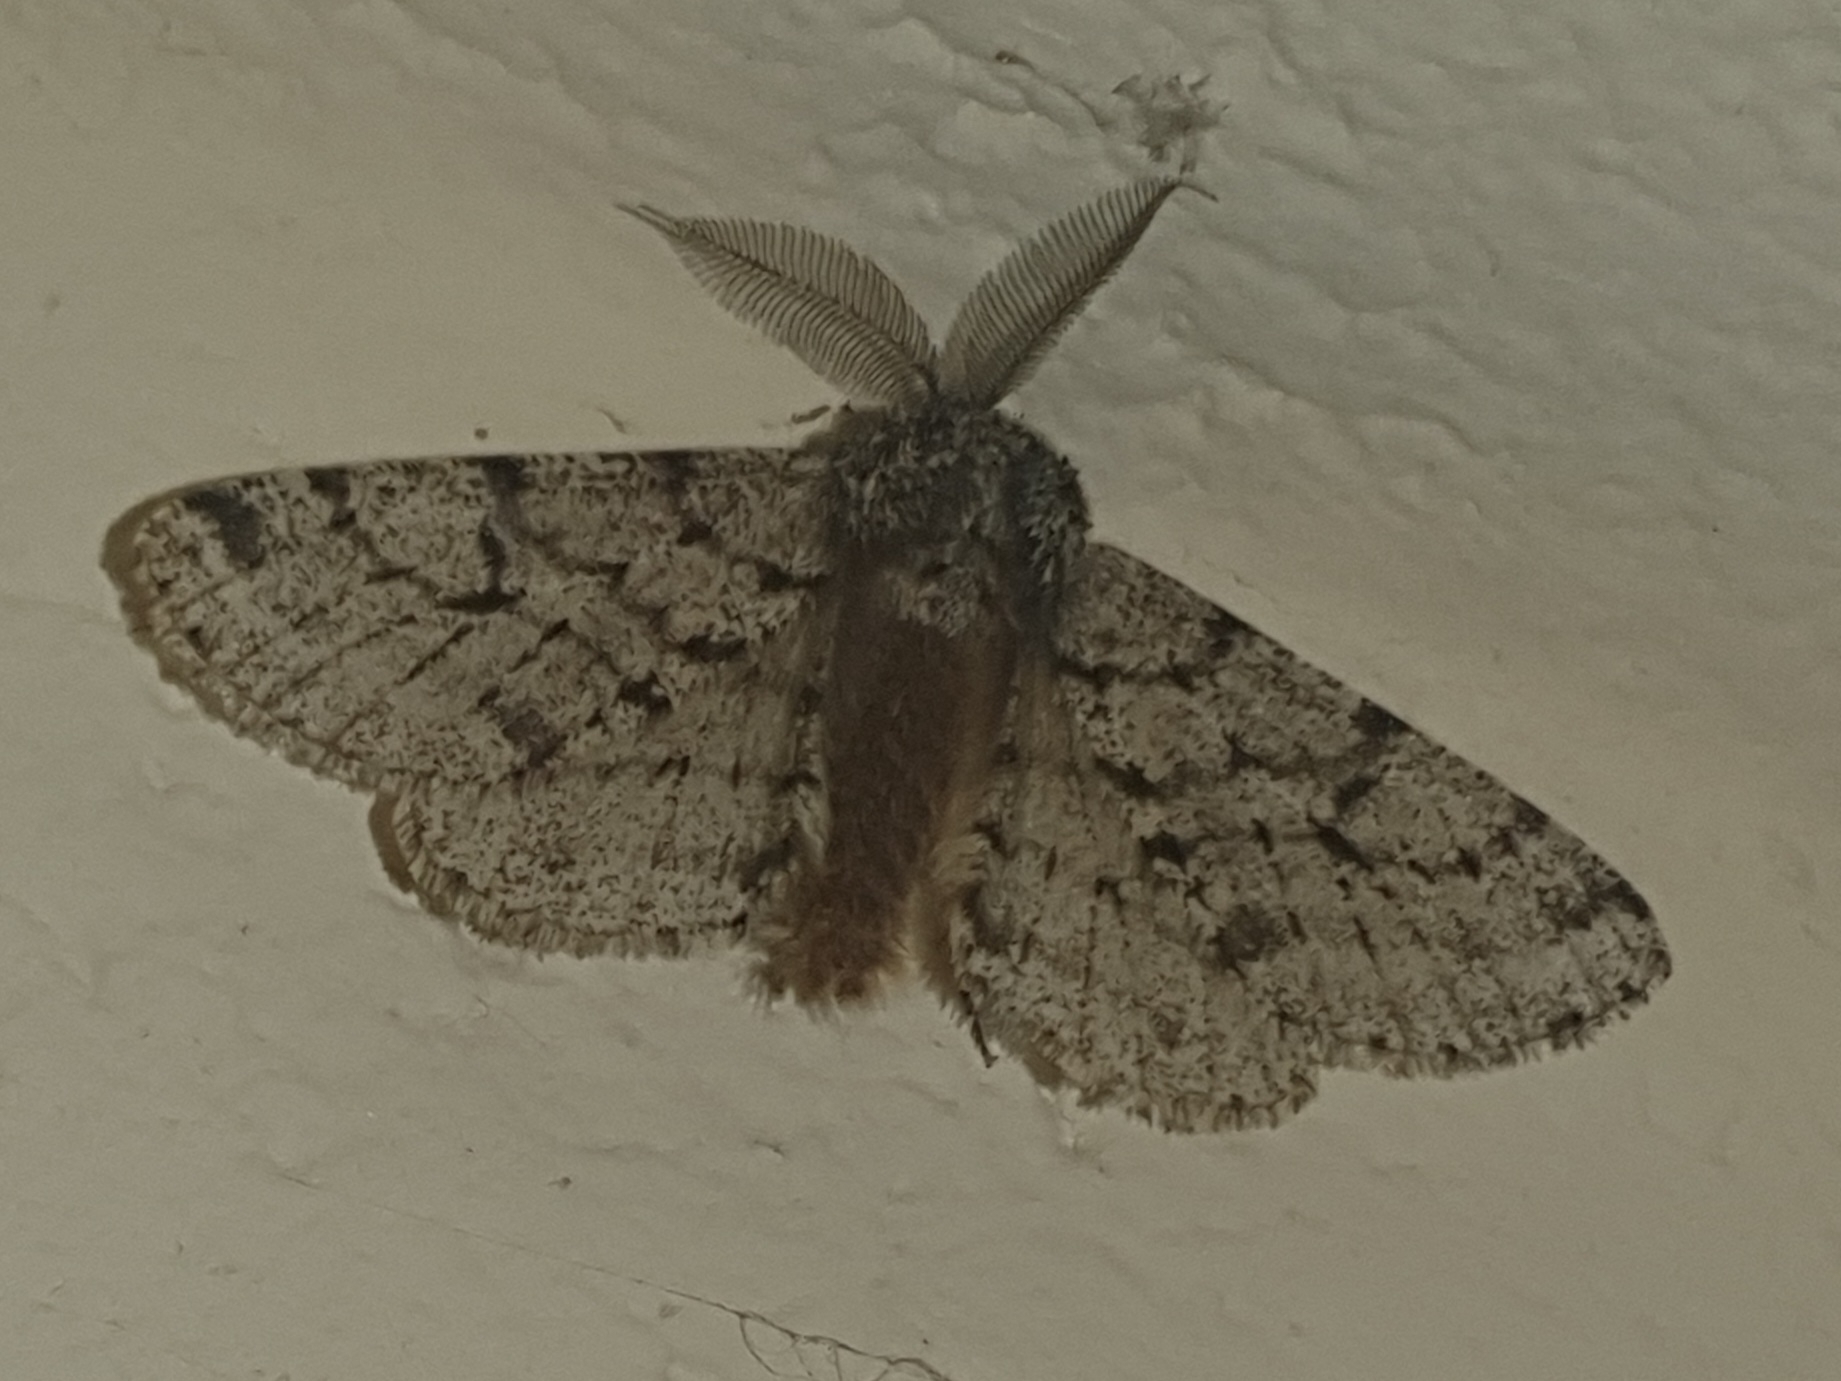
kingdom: Animalia
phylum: Arthropoda
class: Insecta
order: Lepidoptera
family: Geometridae
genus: Lycia
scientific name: Lycia hirtaria
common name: Brindled beauty
